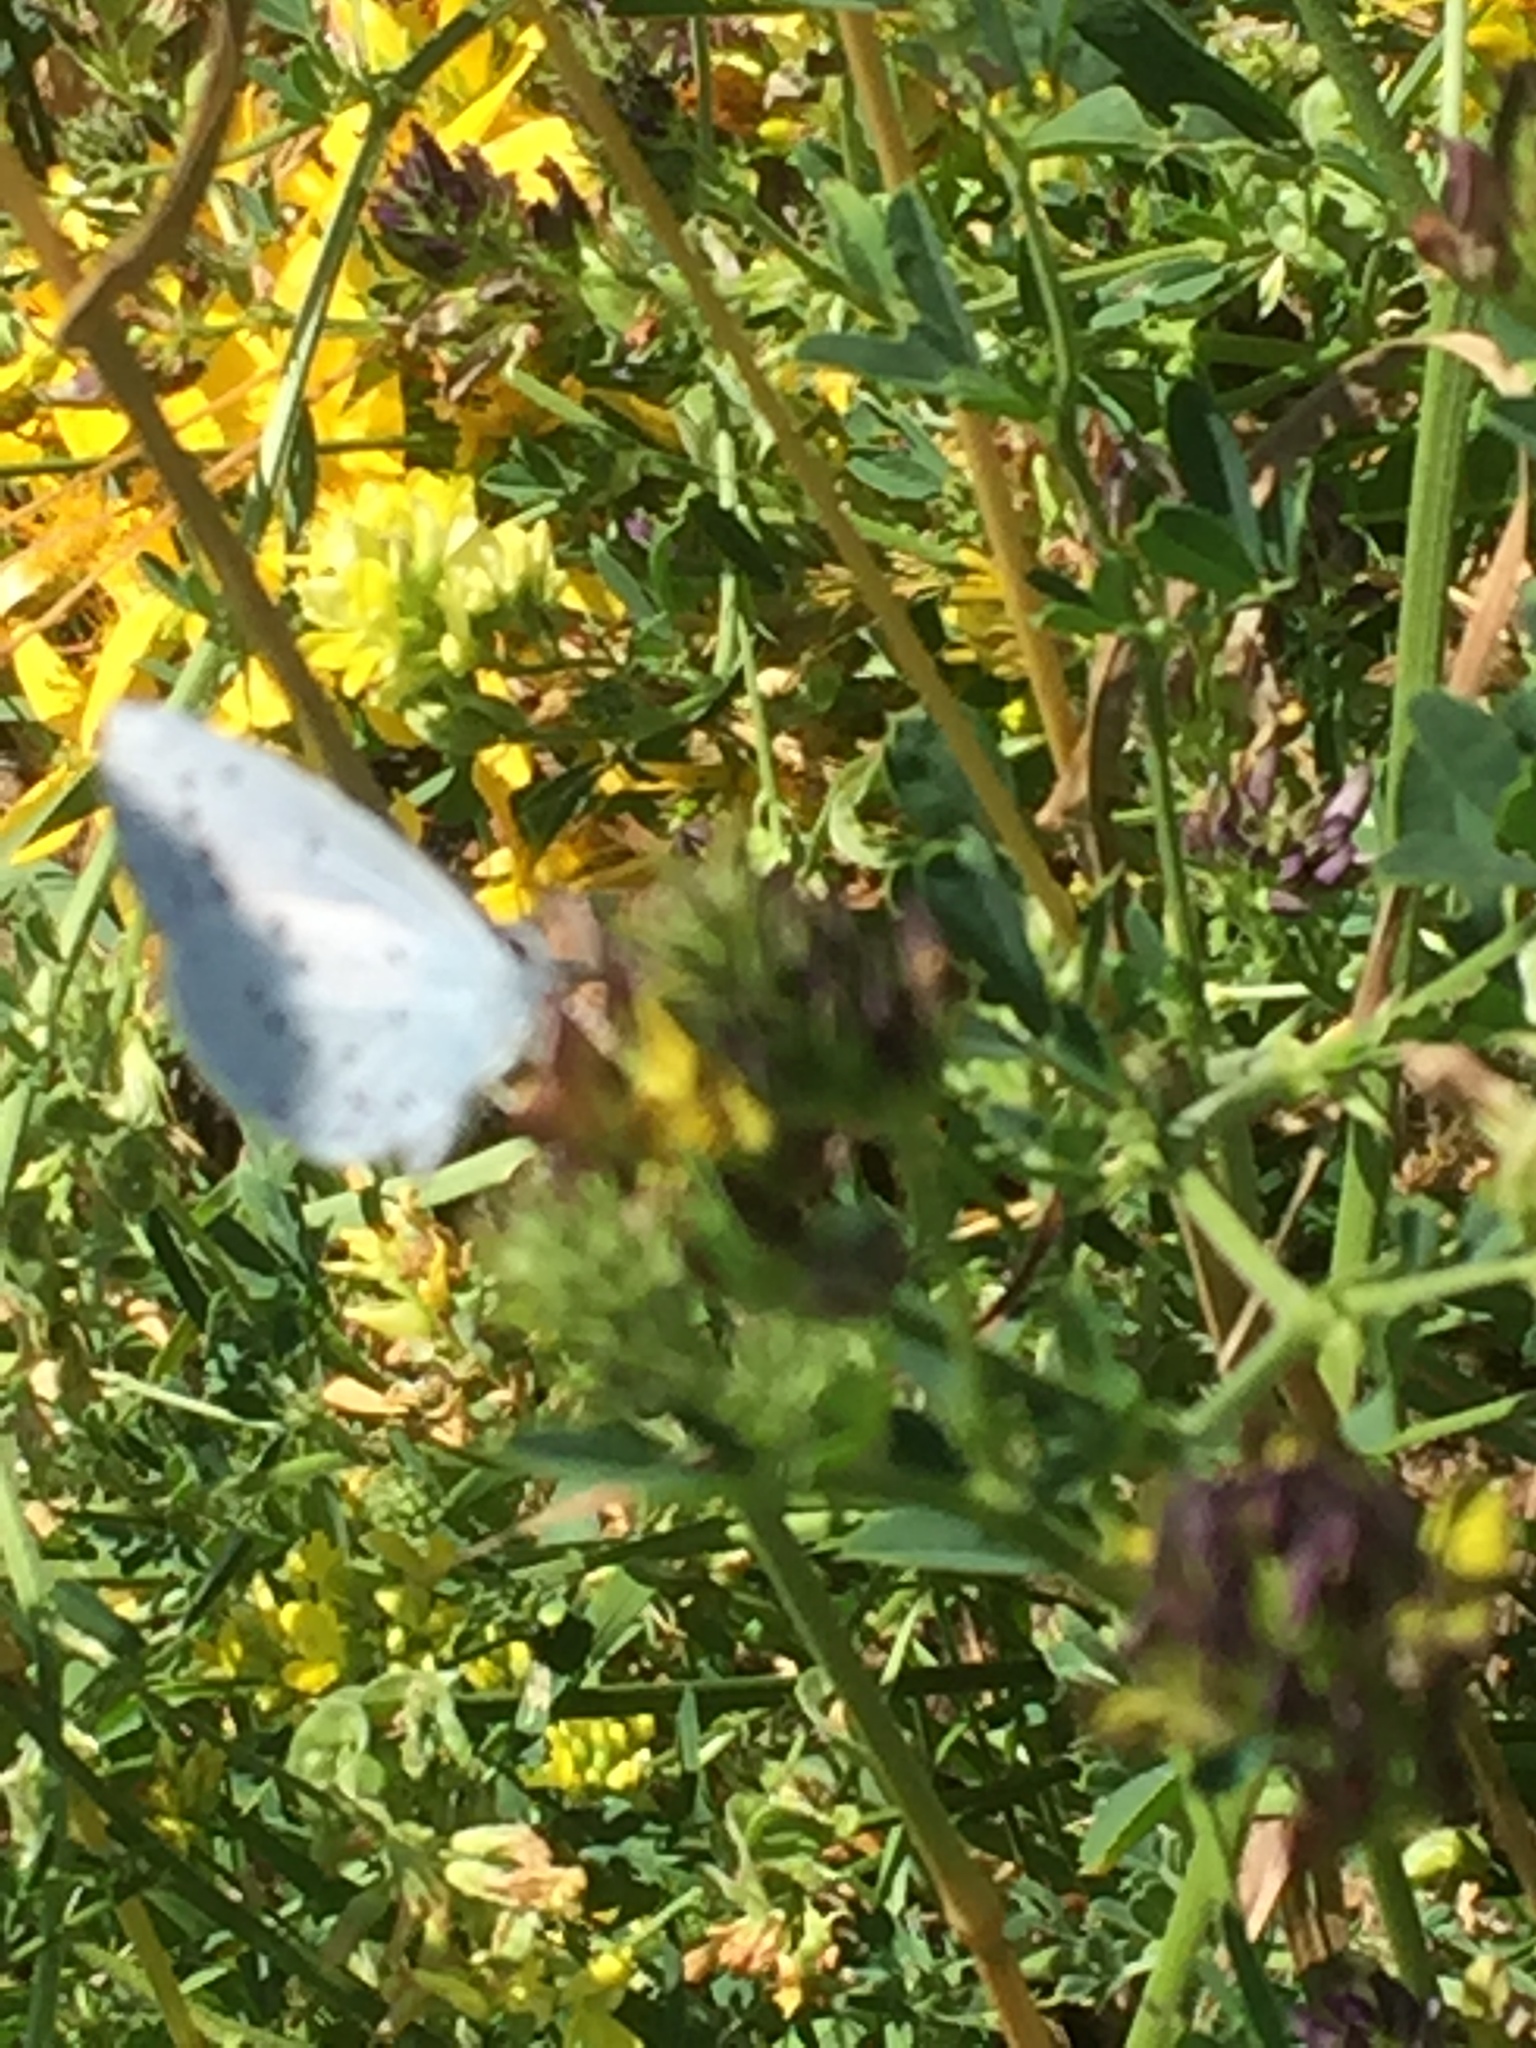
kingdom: Animalia
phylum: Arthropoda
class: Insecta
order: Lepidoptera
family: Lycaenidae
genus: Celastrina
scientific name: Celastrina argiolus
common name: Holly blue
